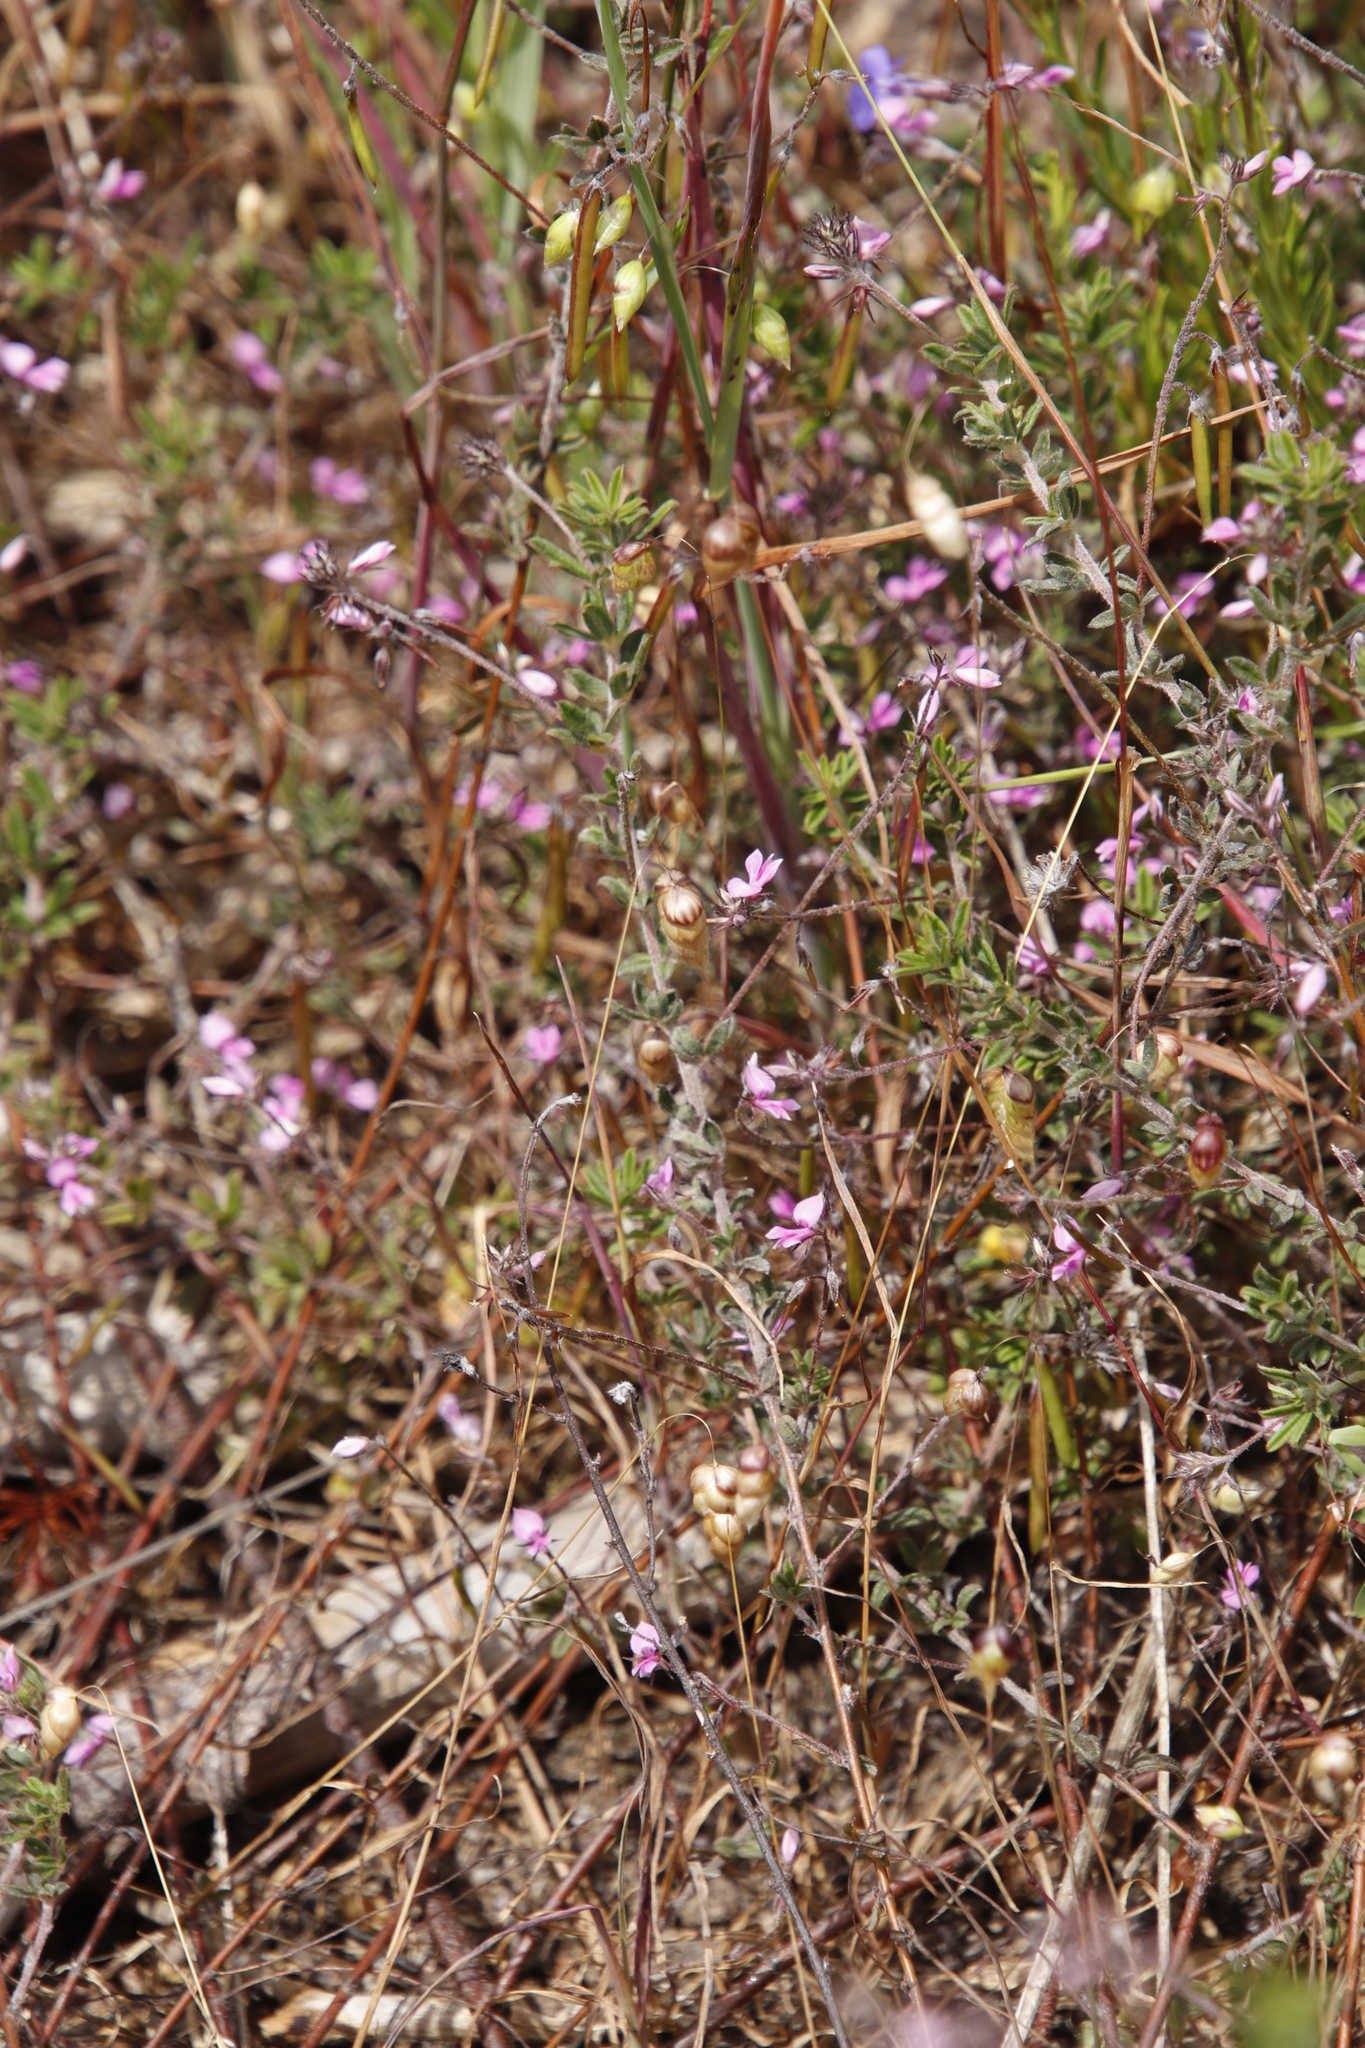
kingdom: Plantae
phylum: Tracheophyta
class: Magnoliopsida
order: Fabales
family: Fabaceae
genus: Indigofera
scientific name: Indigofera filiformis
